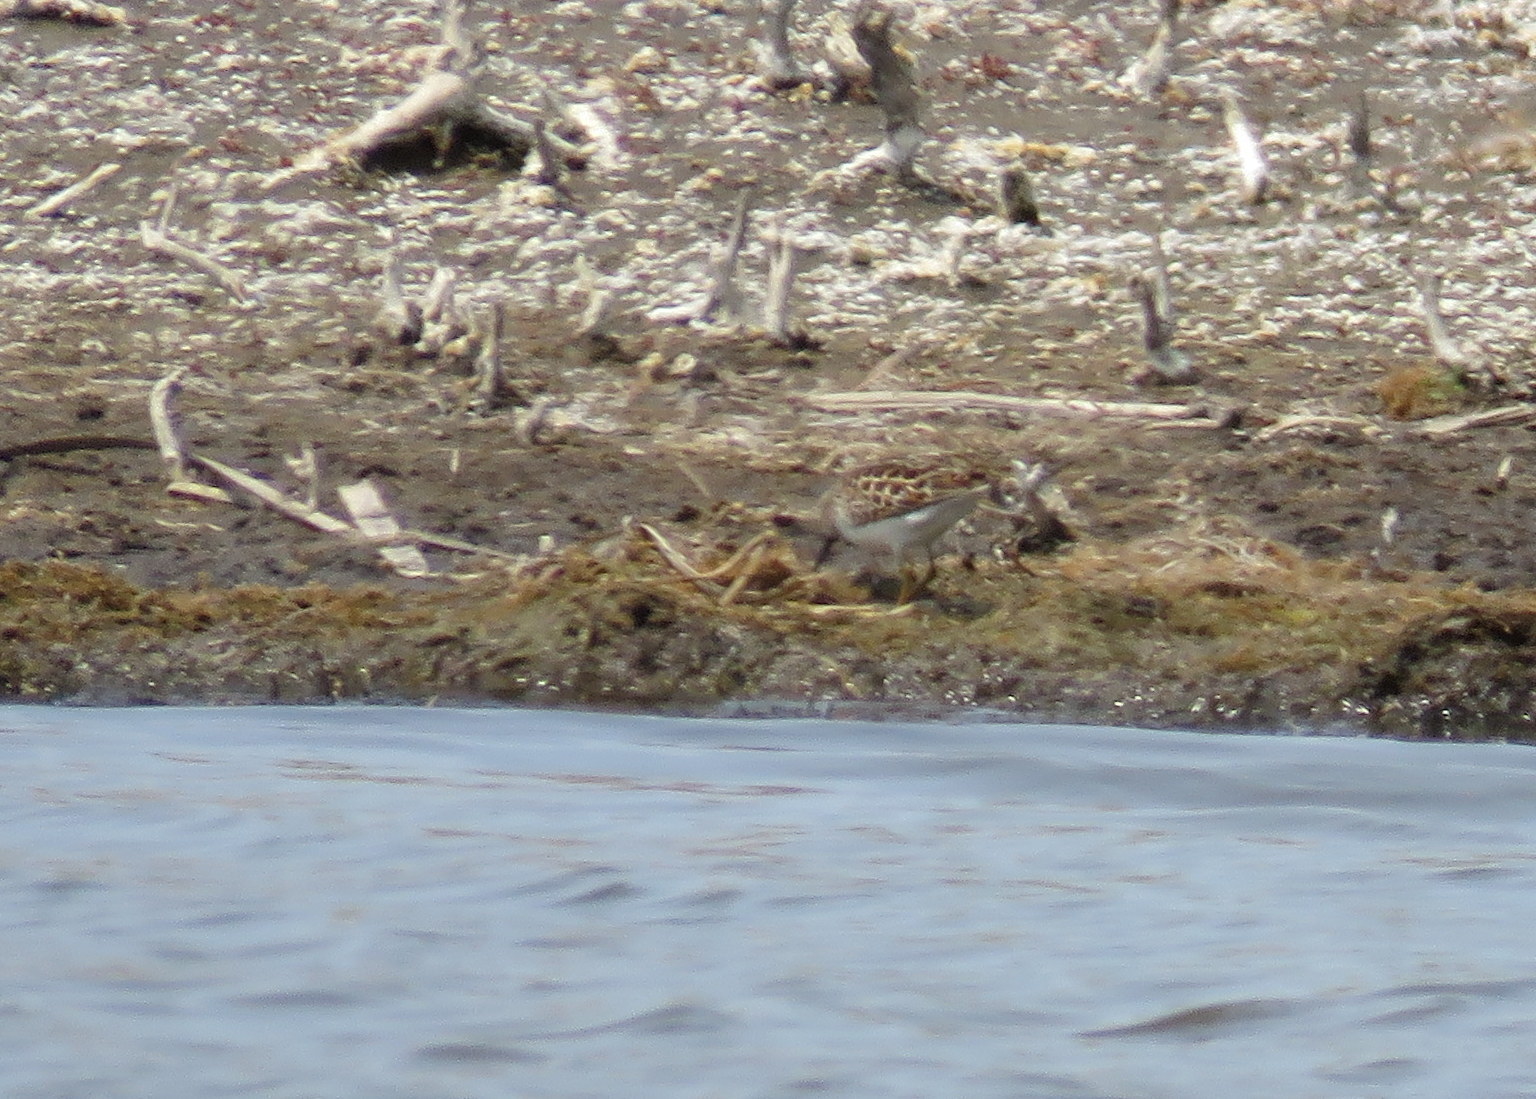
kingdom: Animalia
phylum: Chordata
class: Aves
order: Charadriiformes
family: Scolopacidae
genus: Calidris
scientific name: Calidris minutilla
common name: Least sandpiper
